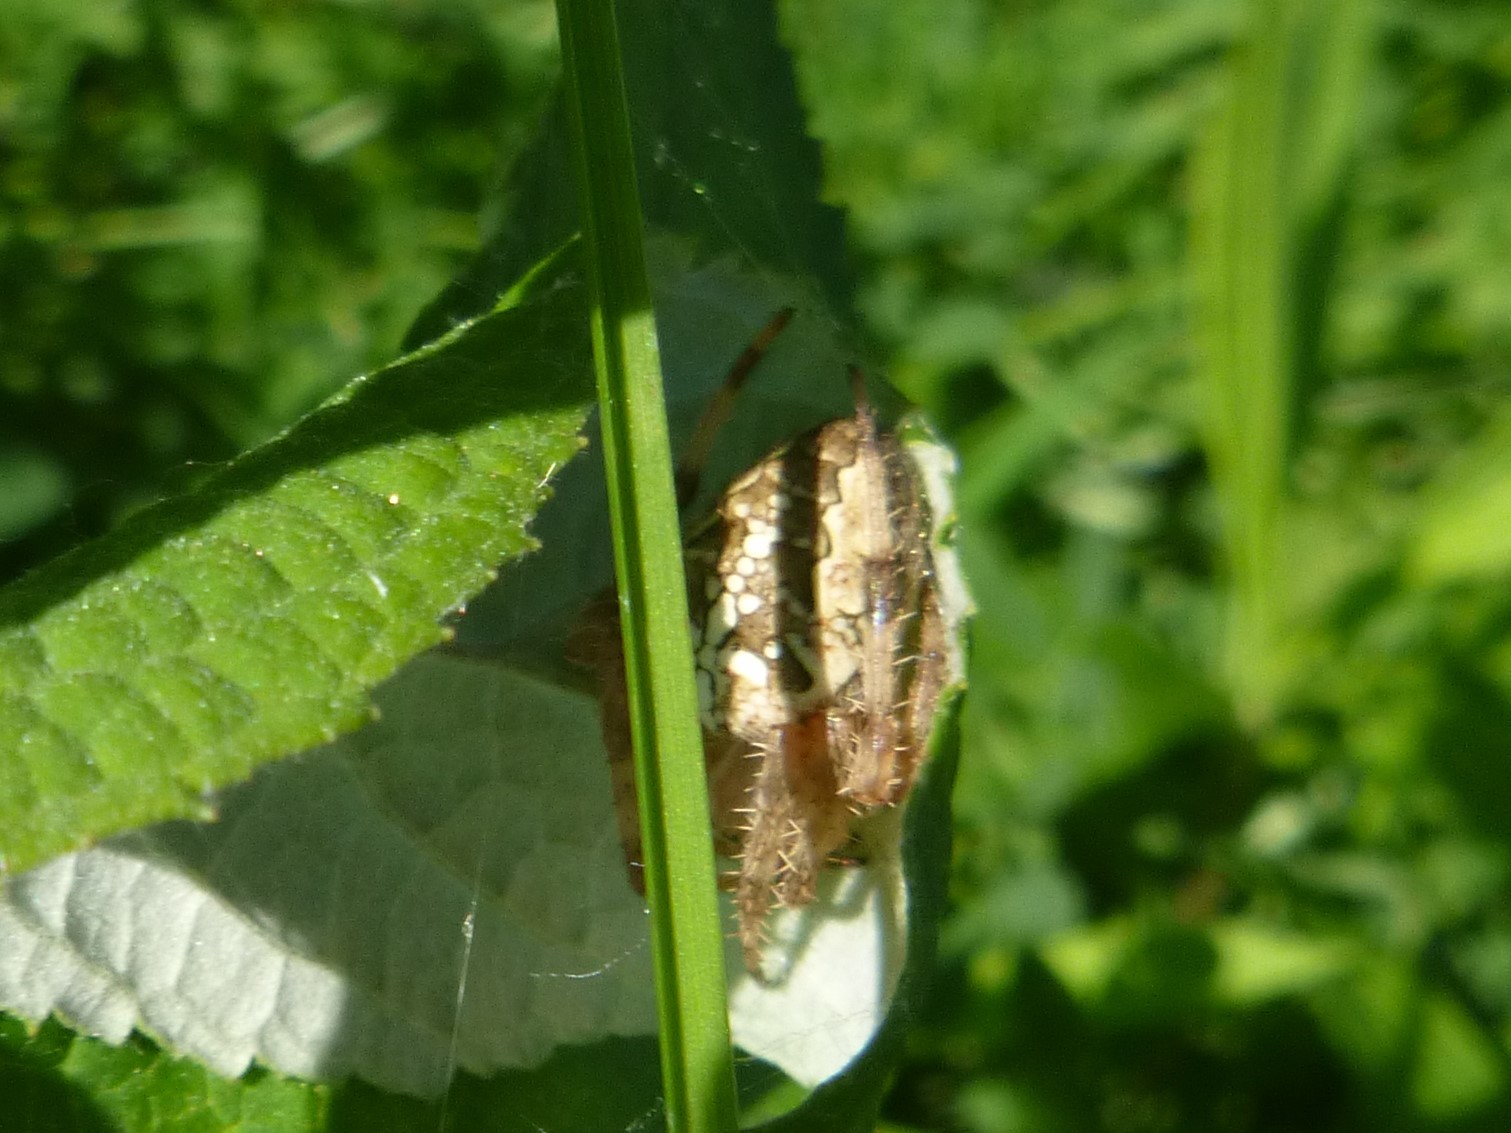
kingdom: Animalia
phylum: Arthropoda
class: Arachnida
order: Araneae
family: Araneidae
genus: Araneus
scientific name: Araneus diadematus
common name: Cross orbweaver
